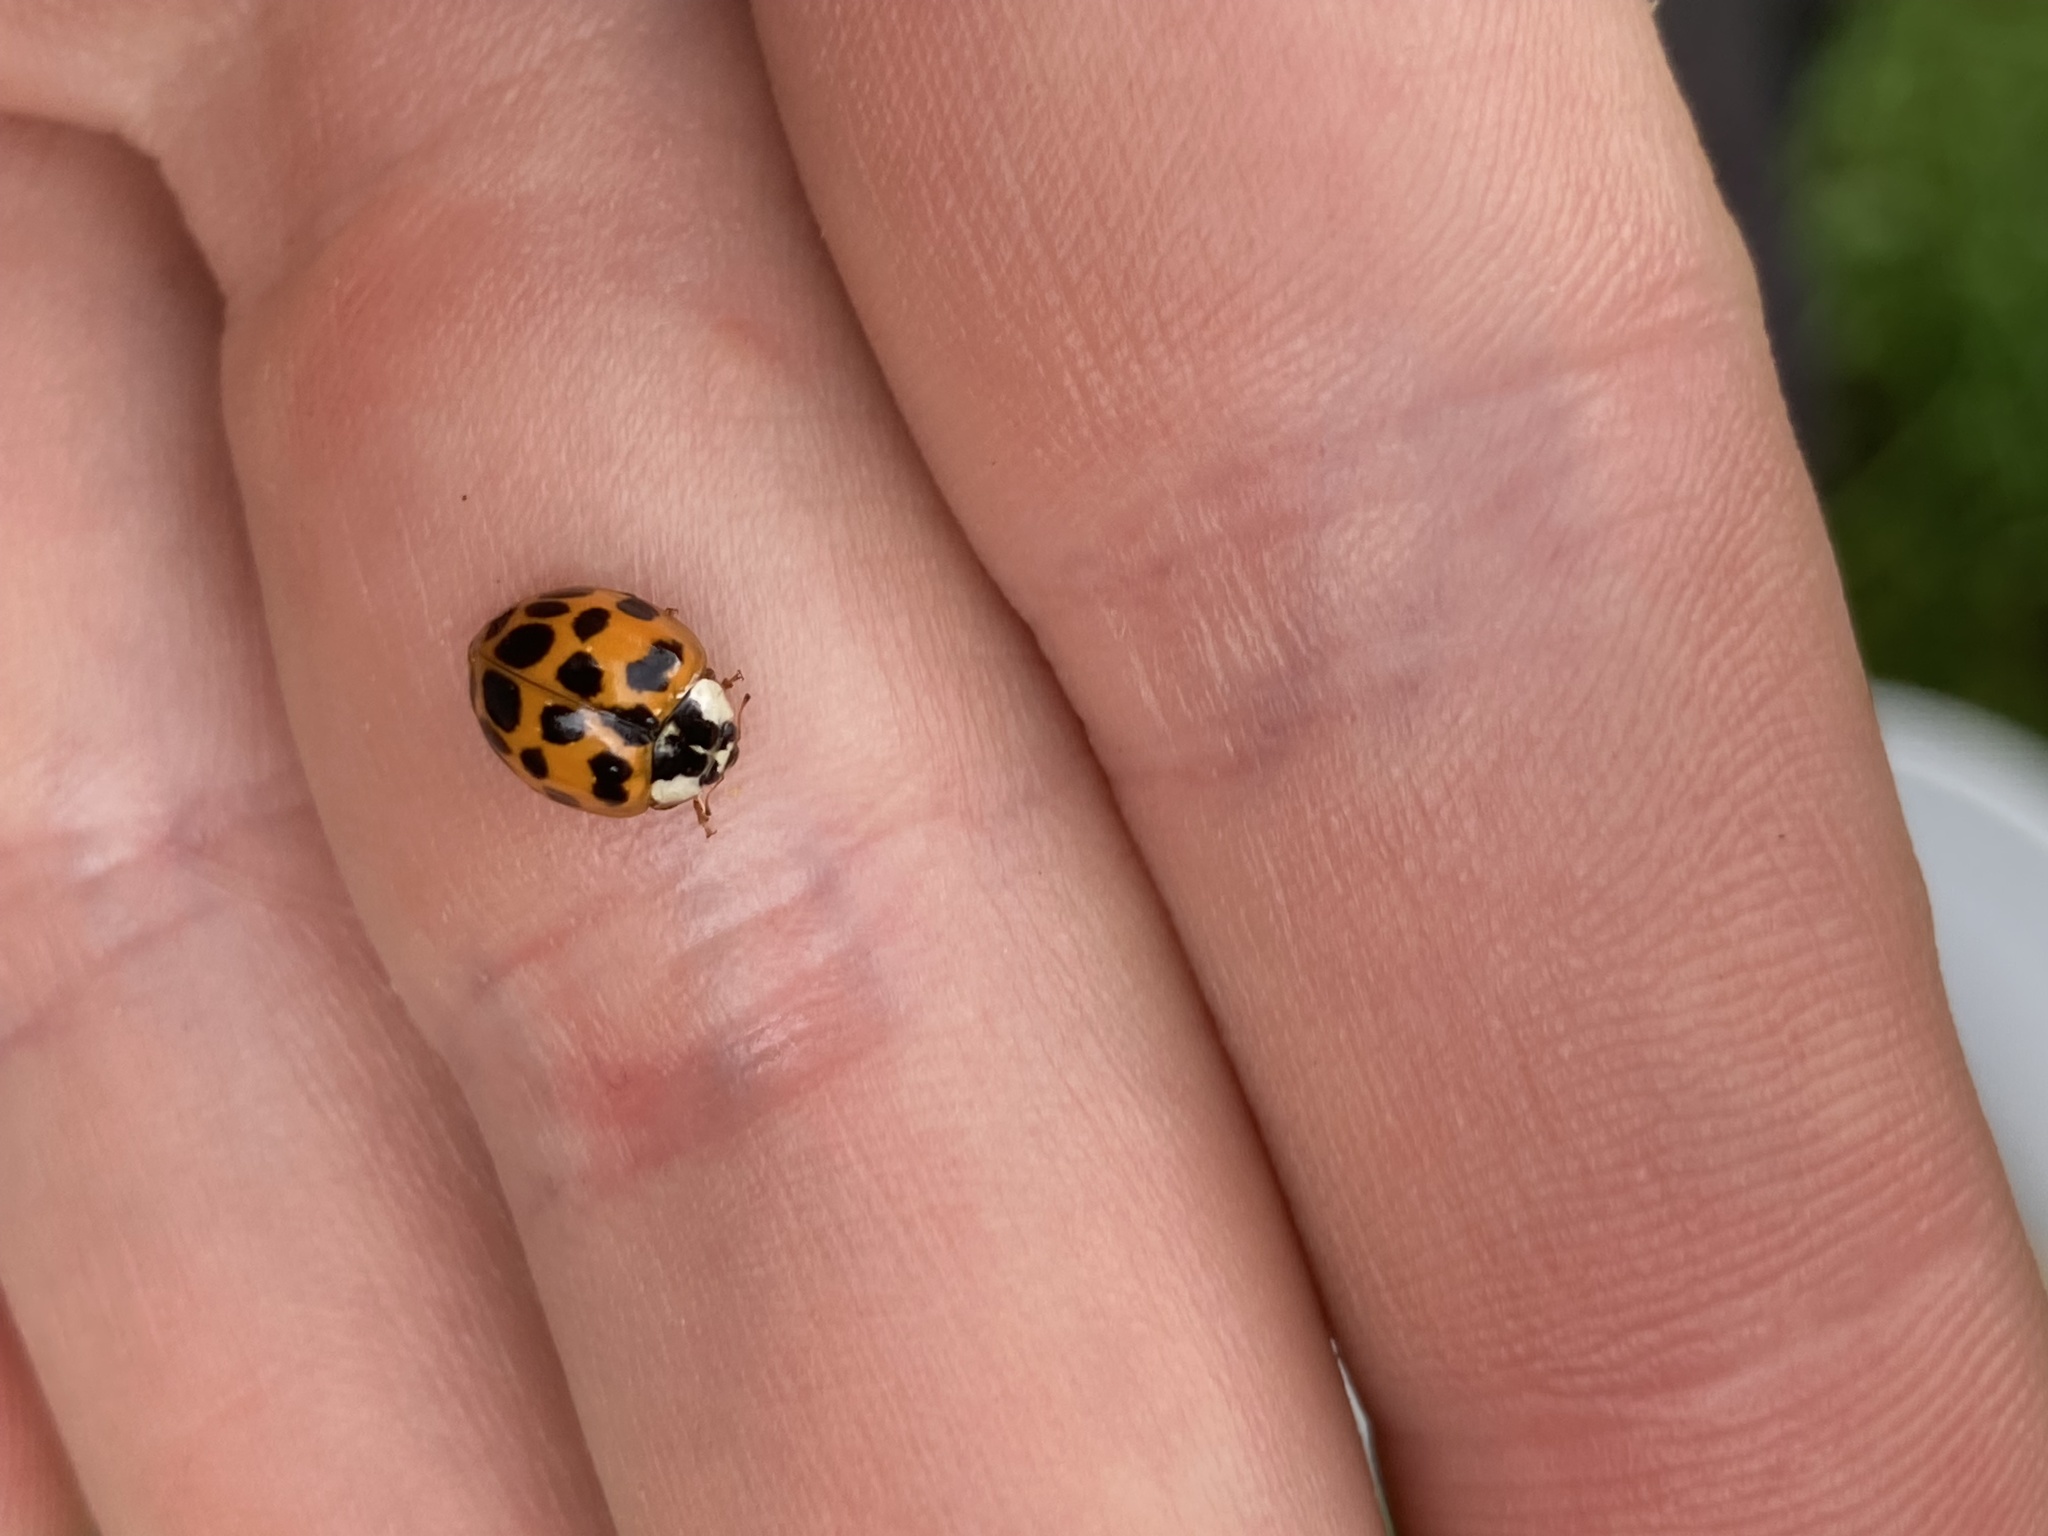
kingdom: Animalia
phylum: Arthropoda
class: Insecta
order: Coleoptera
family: Coccinellidae
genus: Harmonia
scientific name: Harmonia axyridis
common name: Harlequin ladybird
